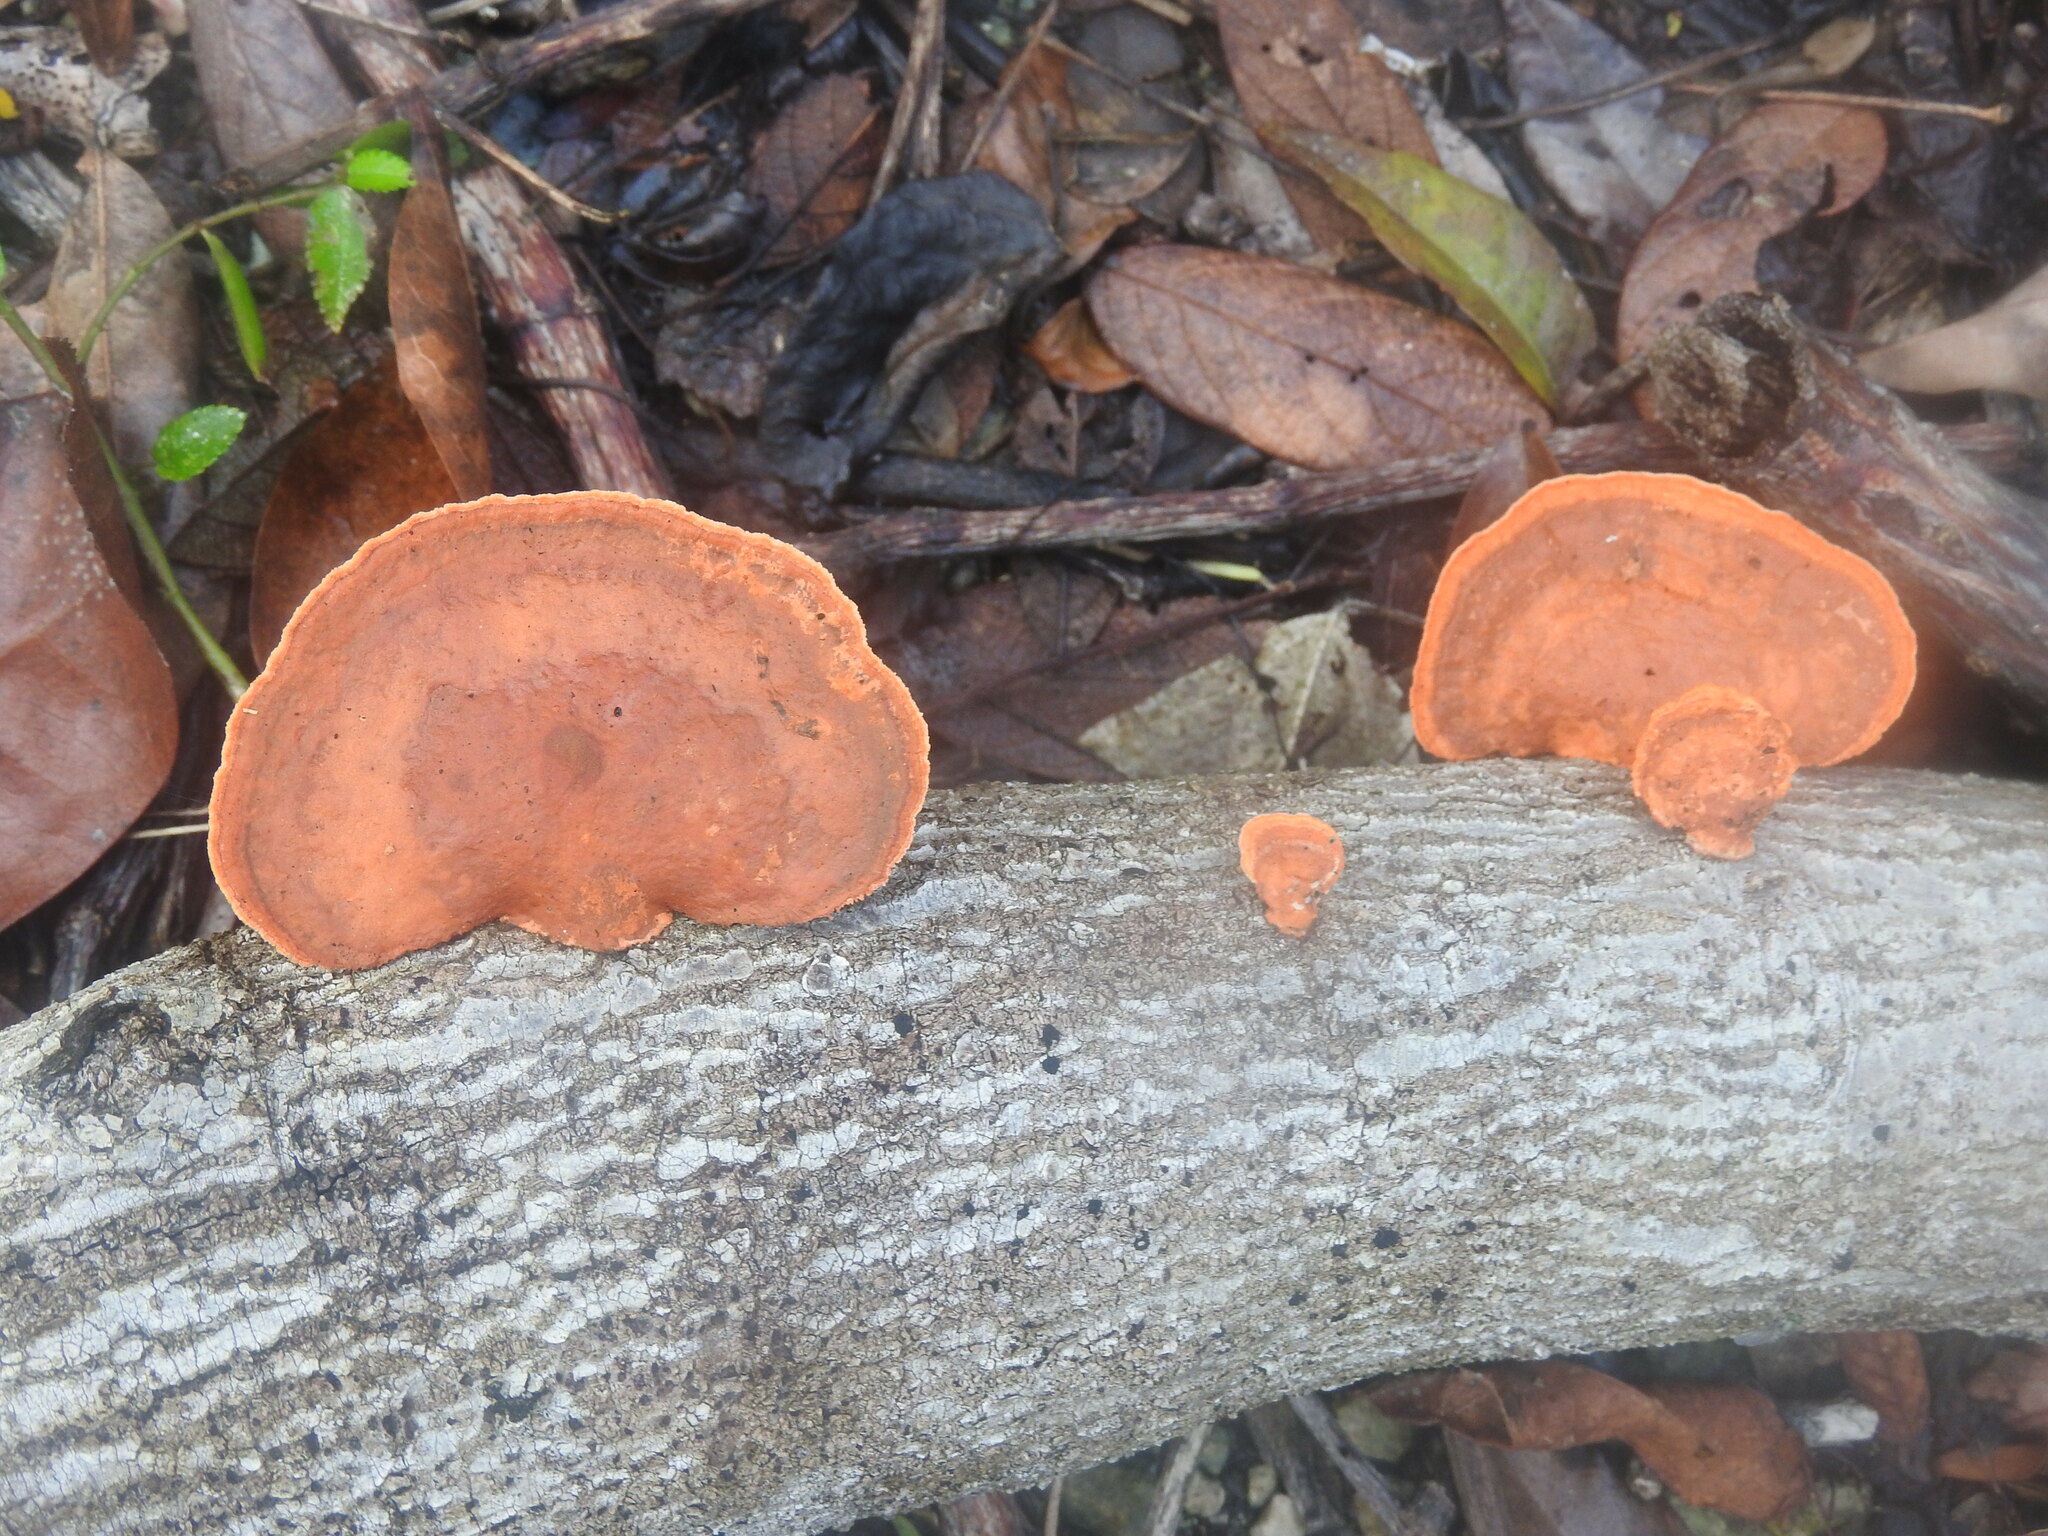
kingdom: Fungi
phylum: Basidiomycota
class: Agaricomycetes
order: Polyporales
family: Polyporaceae
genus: Trametes
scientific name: Trametes coccinea
